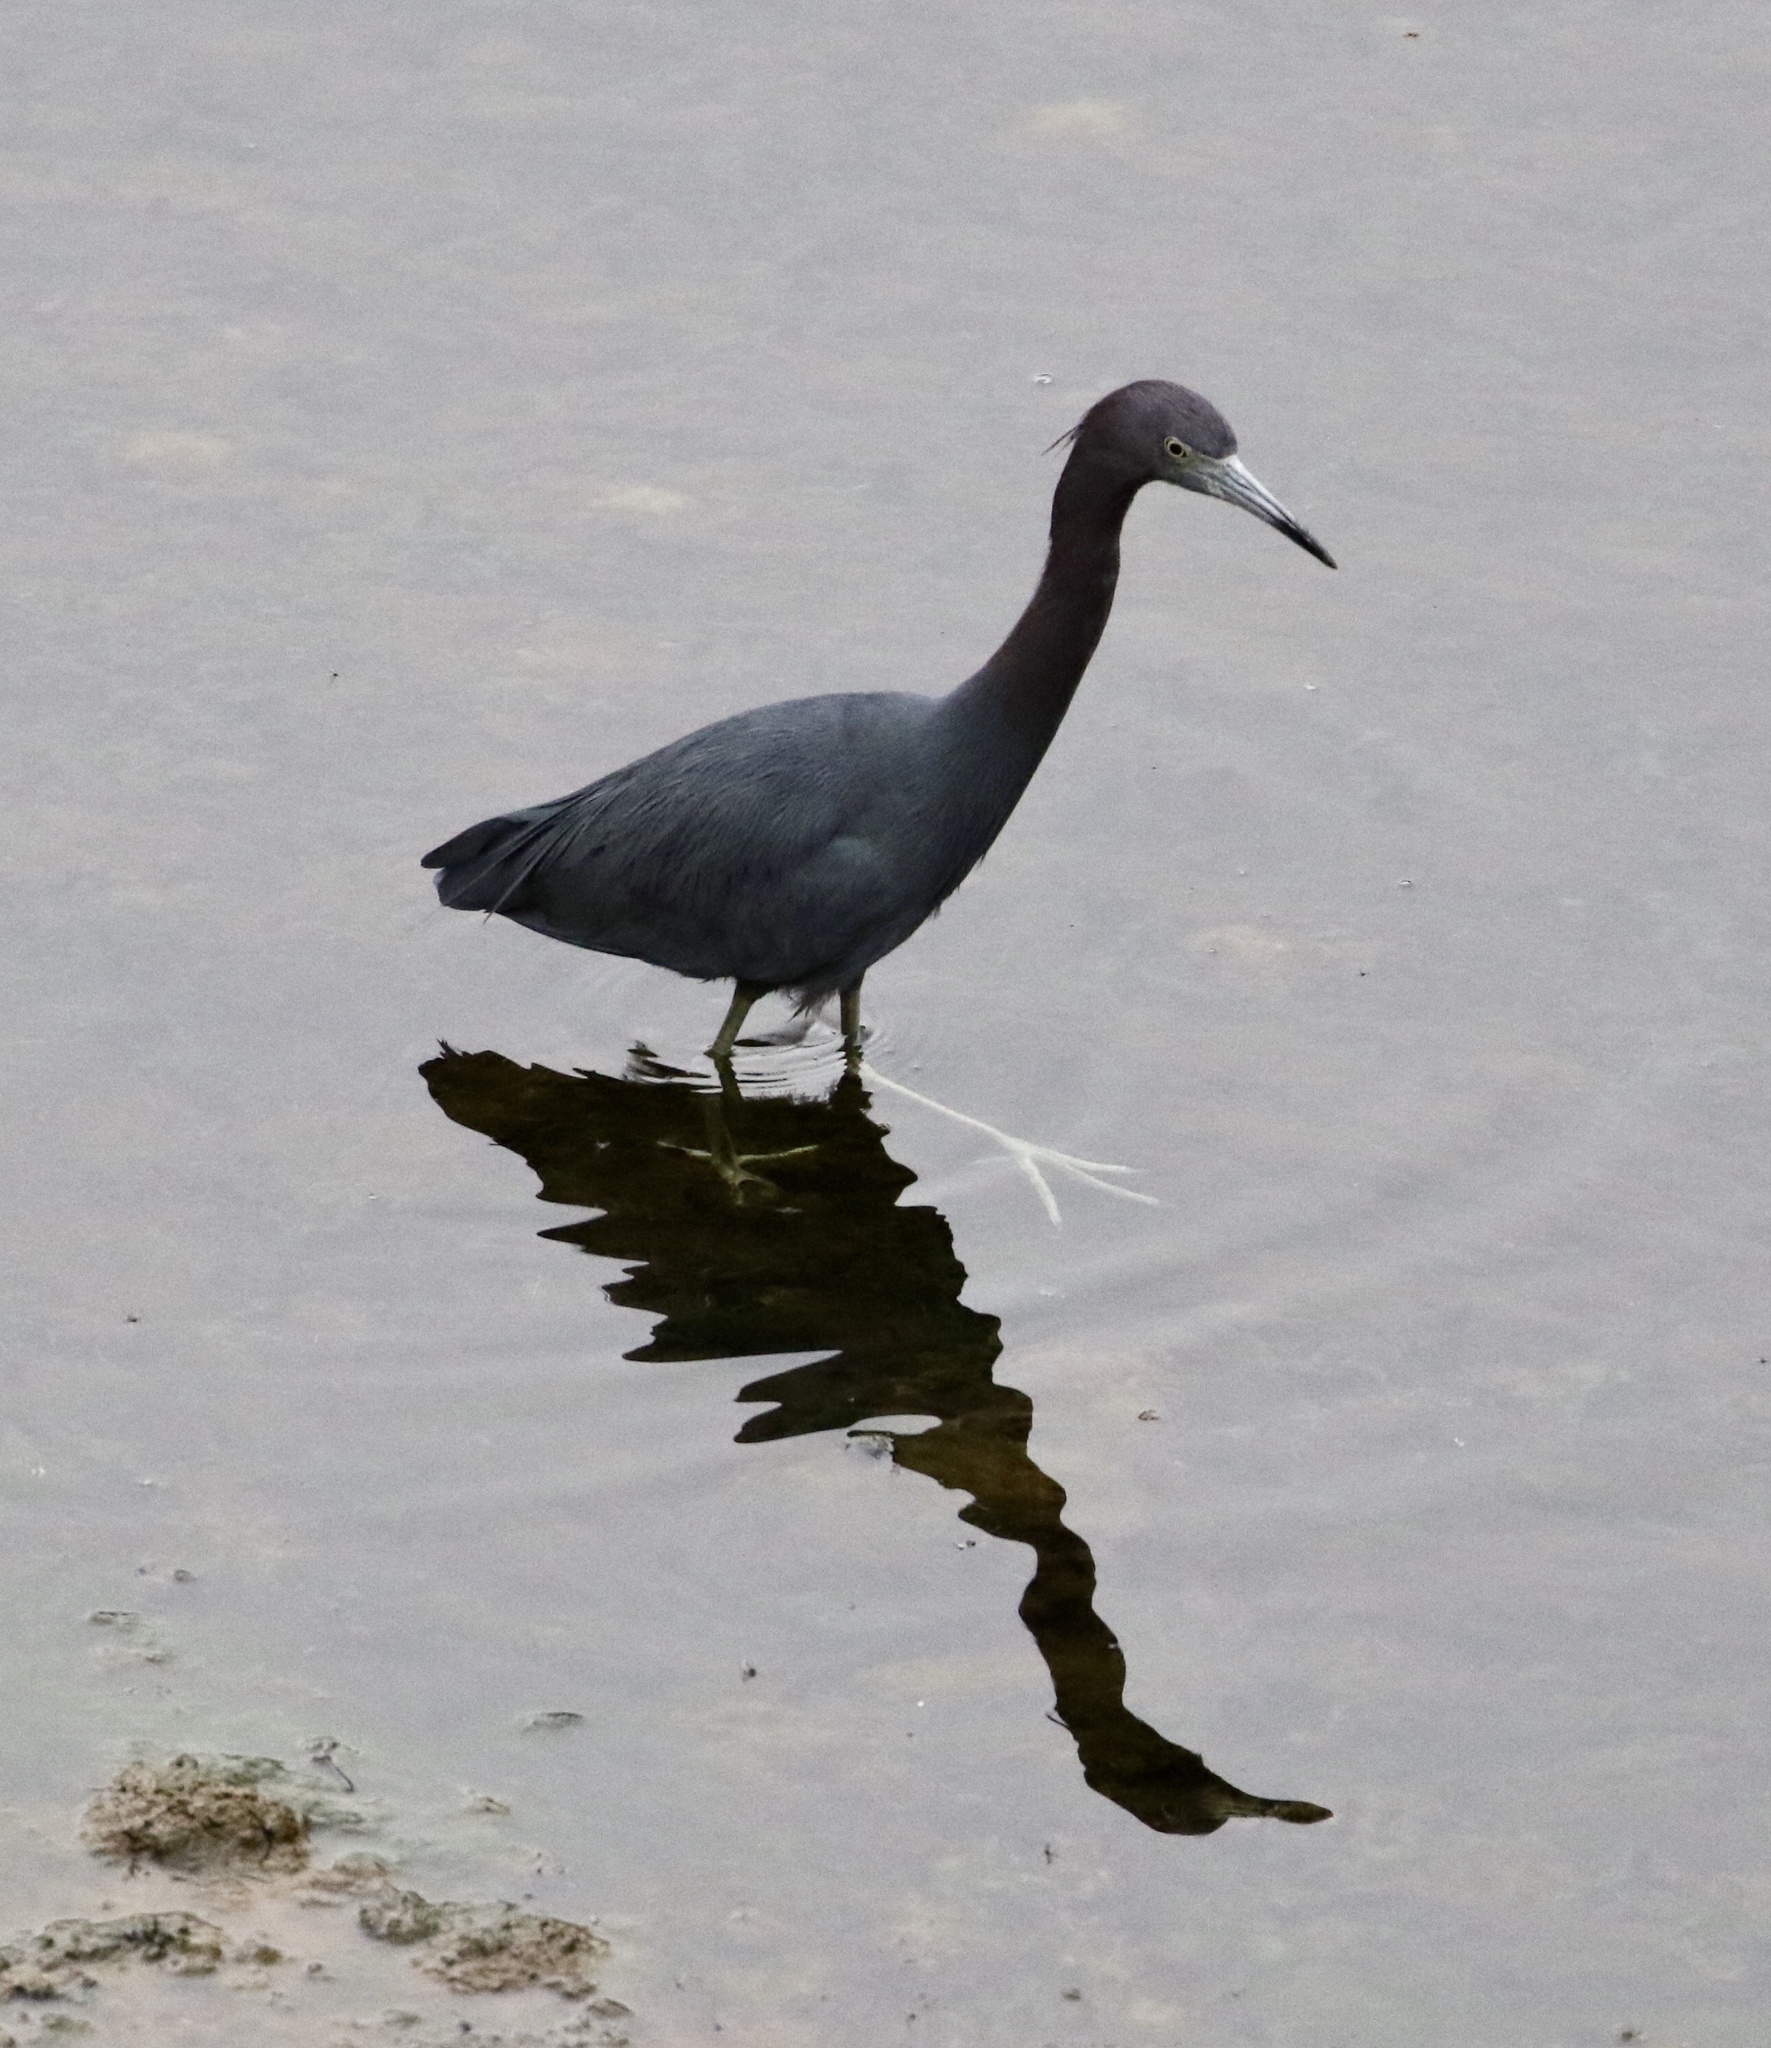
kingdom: Animalia
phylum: Chordata
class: Aves
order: Pelecaniformes
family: Ardeidae
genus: Egretta
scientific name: Egretta caerulea
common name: Little blue heron
